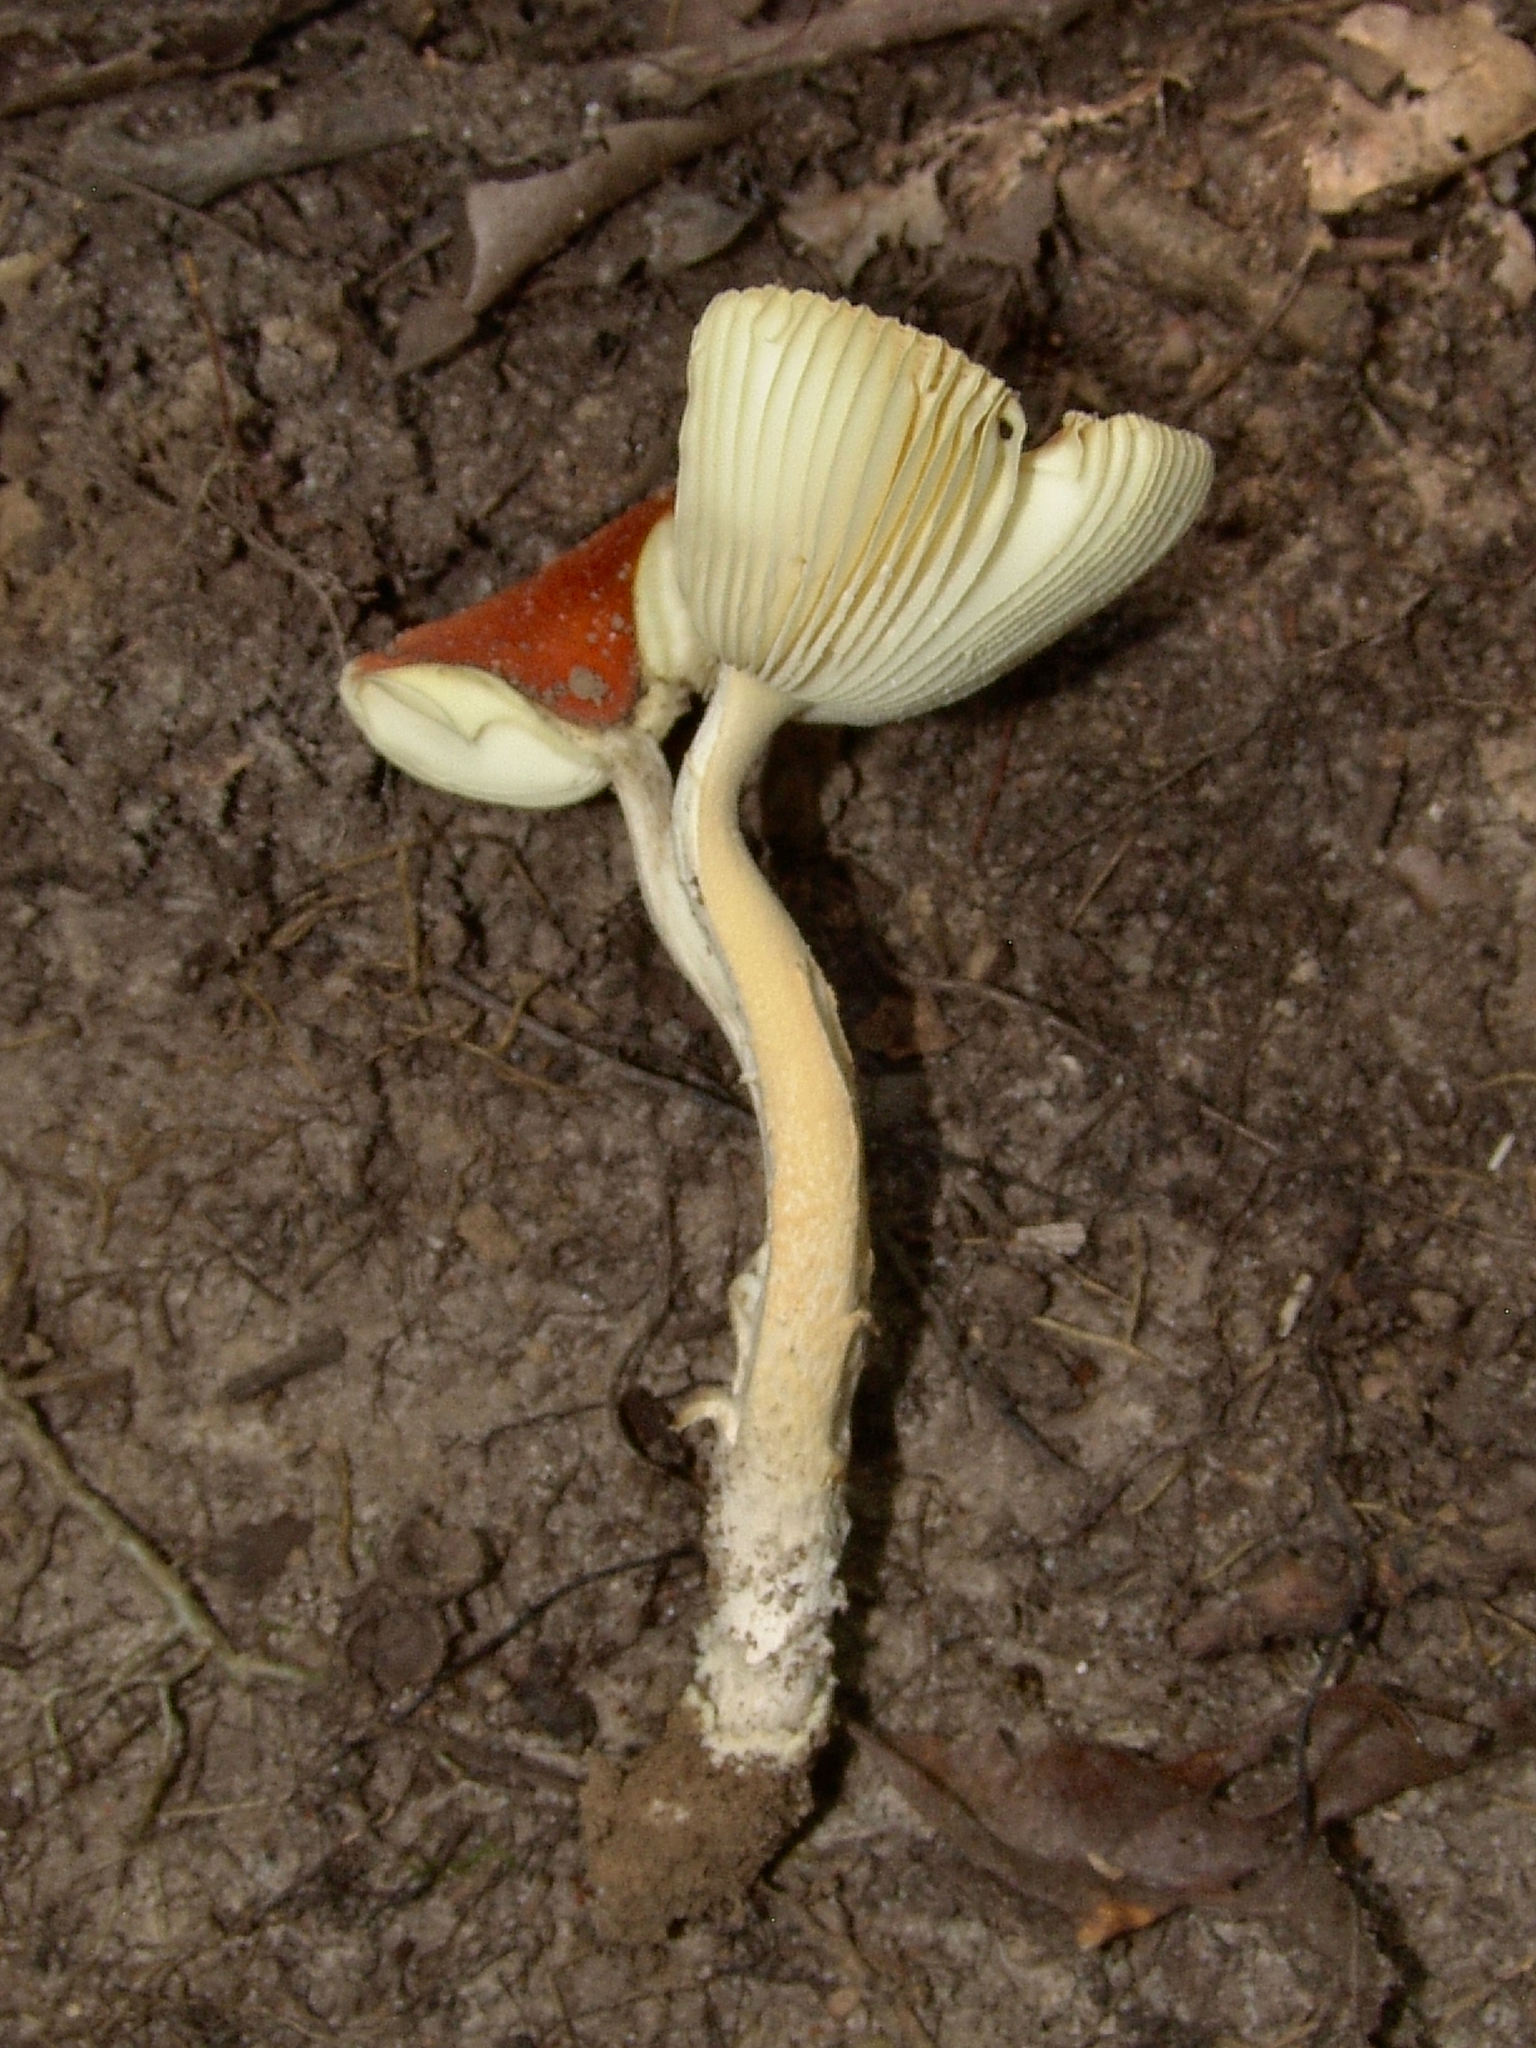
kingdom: Fungi
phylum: Basidiomycota
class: Agaricomycetes
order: Agaricales
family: Amanitaceae
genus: Amanita
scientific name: Amanita parcivolvata
